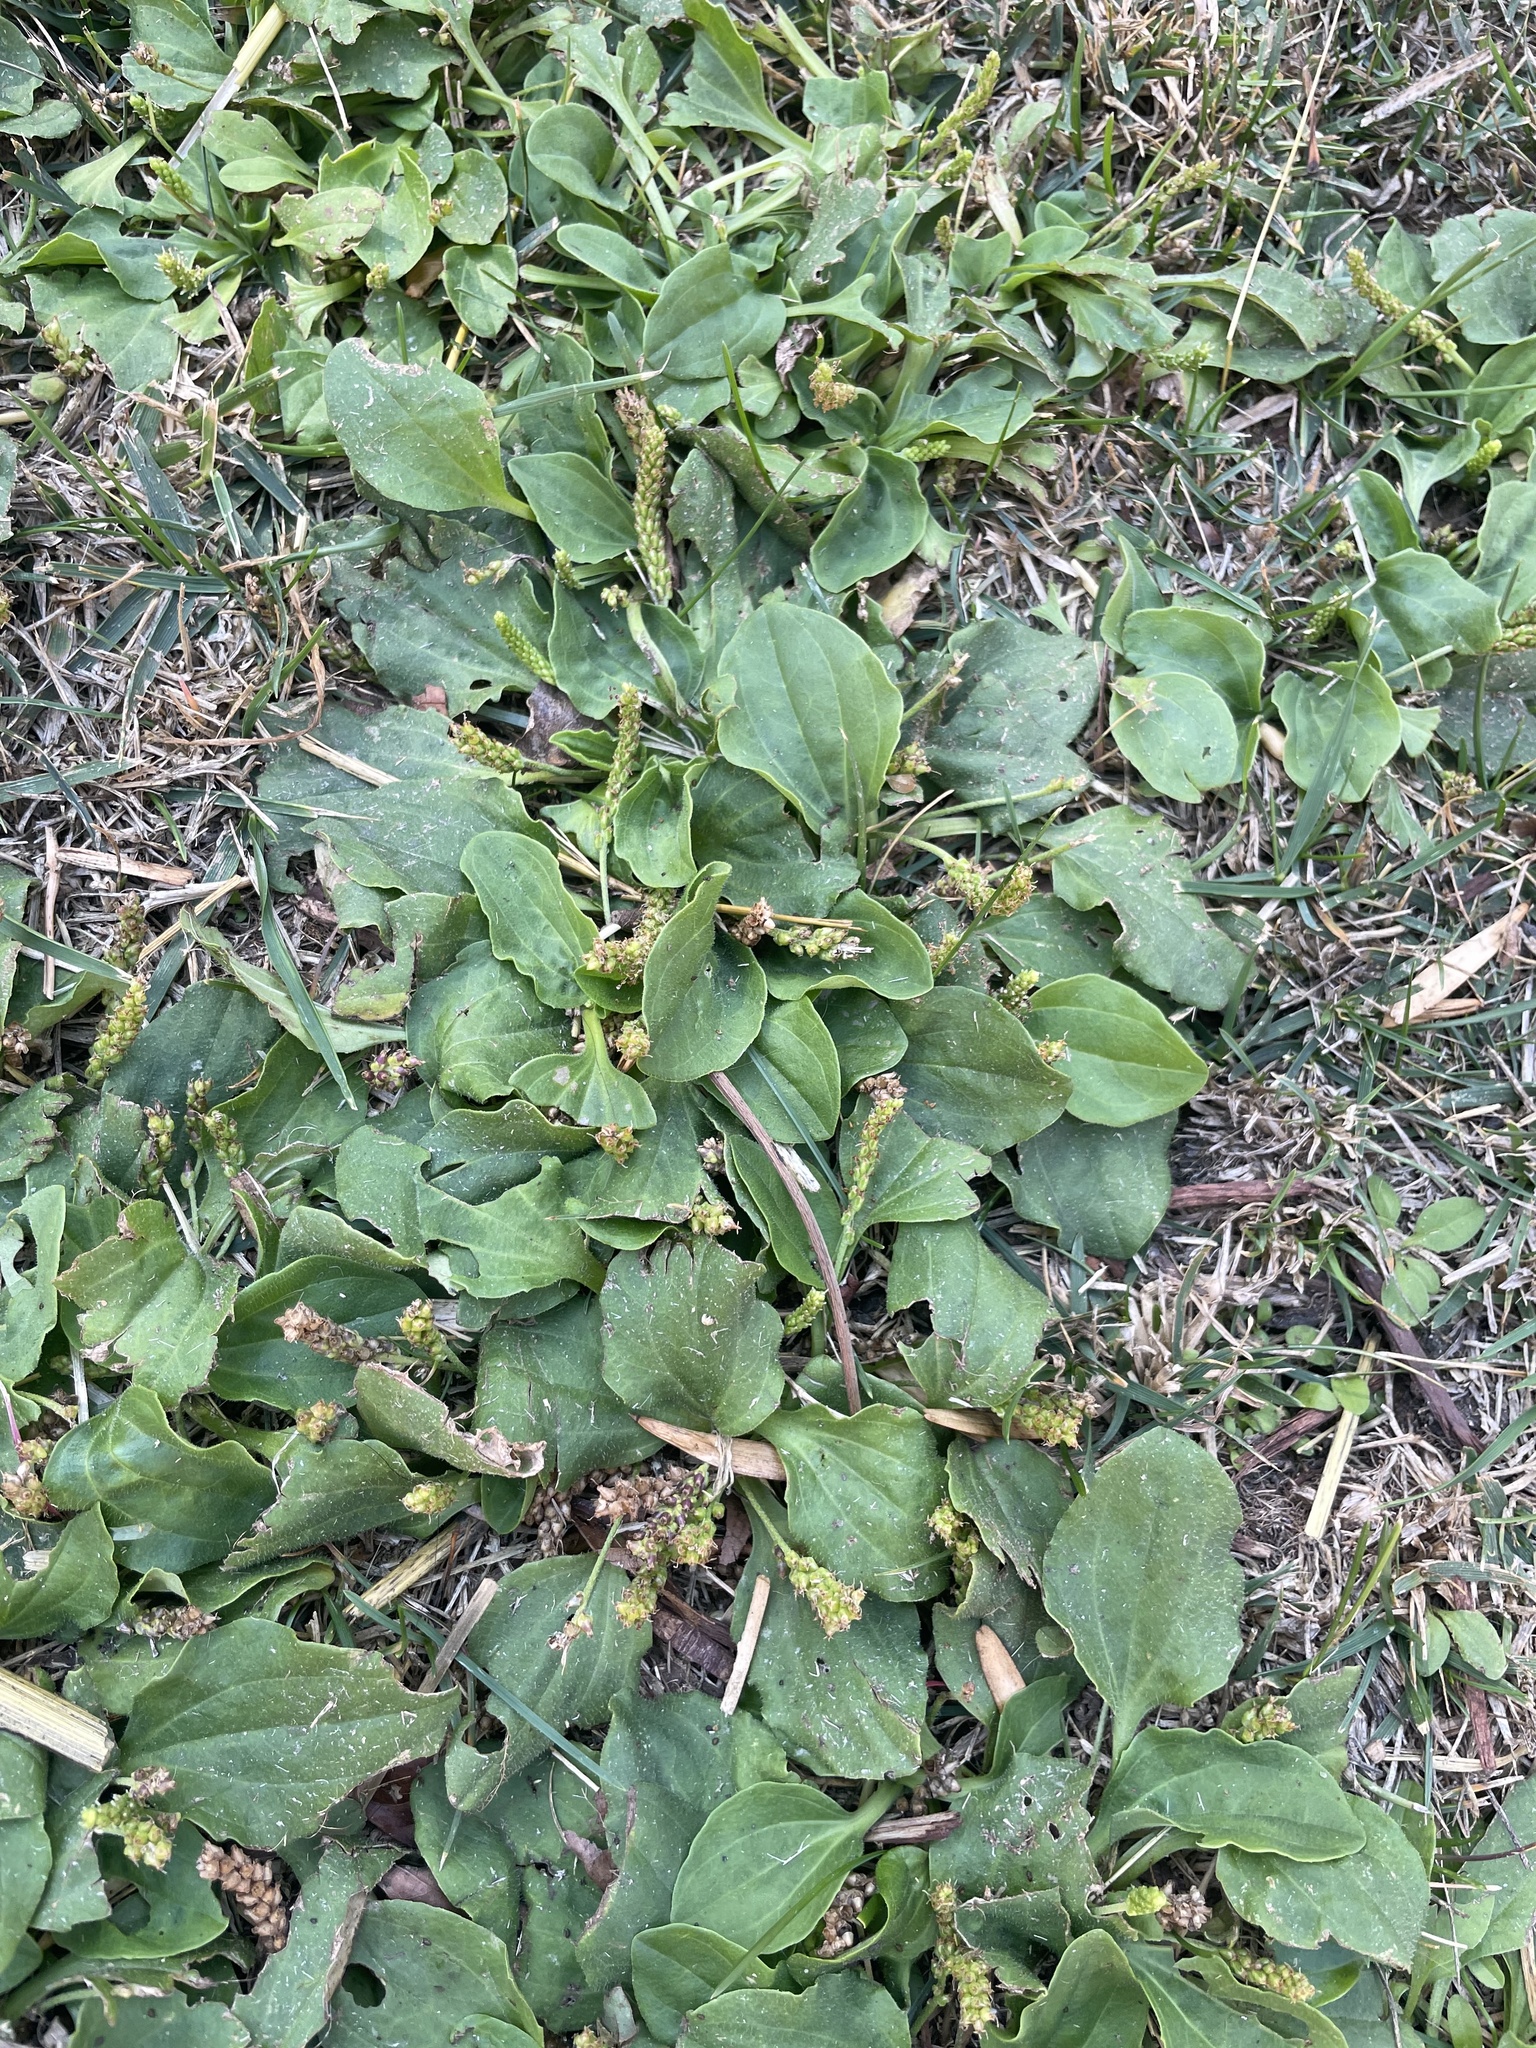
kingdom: Plantae
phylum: Tracheophyta
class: Magnoliopsida
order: Lamiales
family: Plantaginaceae
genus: Plantago
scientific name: Plantago major
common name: Common plantain
